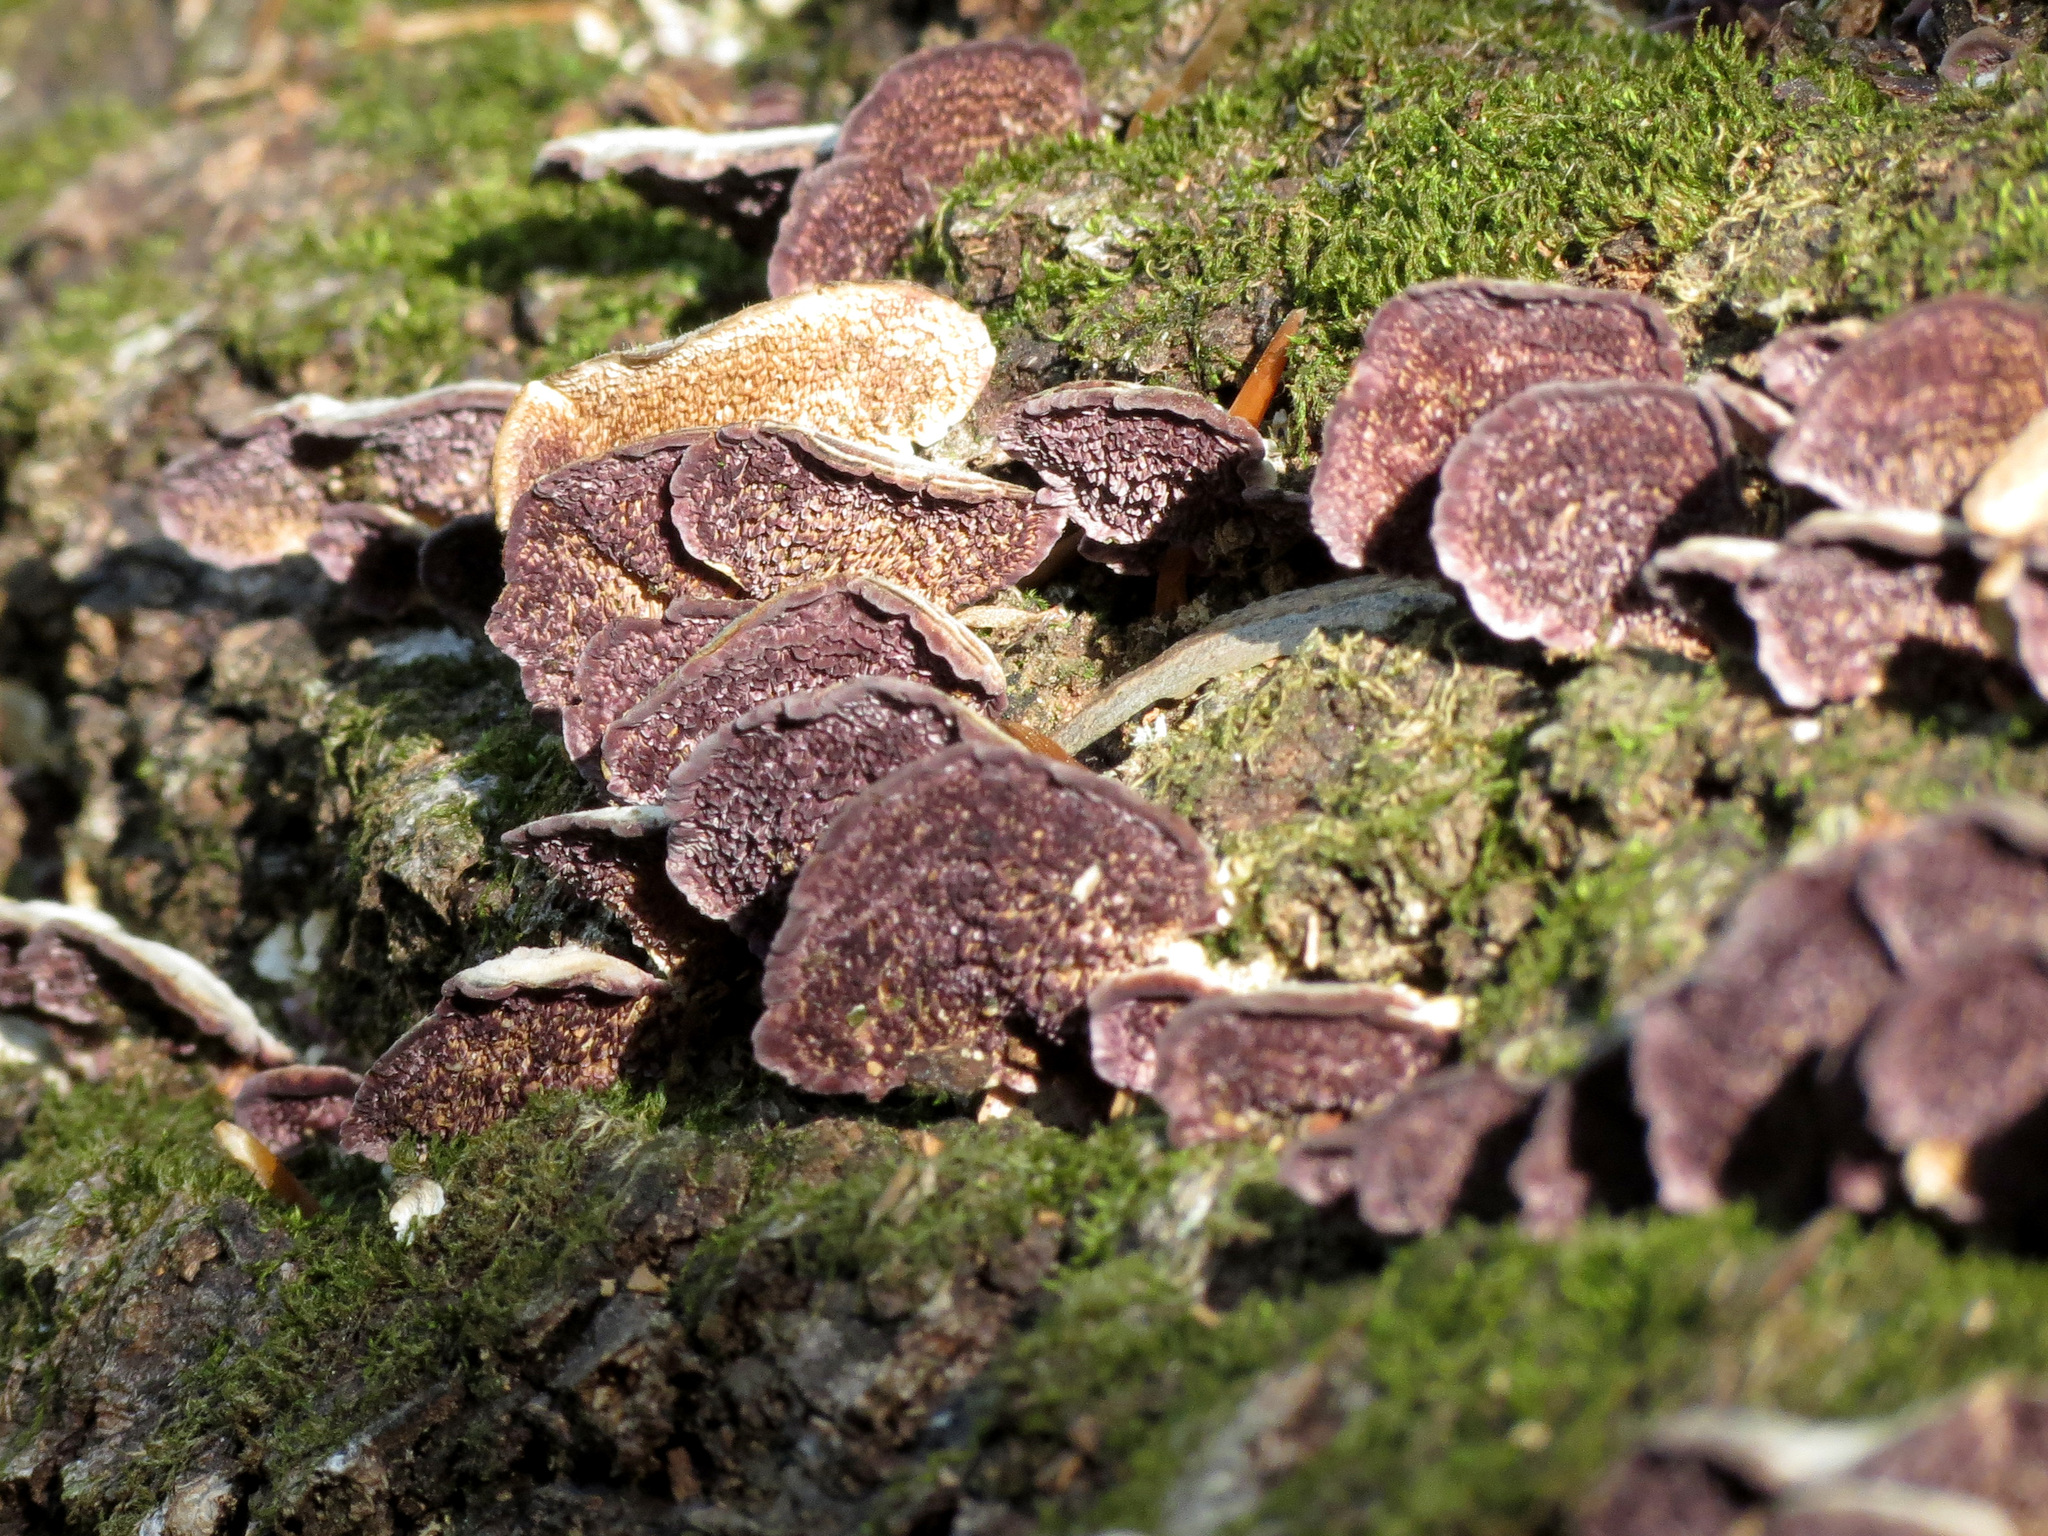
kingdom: Fungi
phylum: Basidiomycota
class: Agaricomycetes
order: Hymenochaetales
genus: Trichaptum
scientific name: Trichaptum biforme
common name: Violet-toothed polypore
